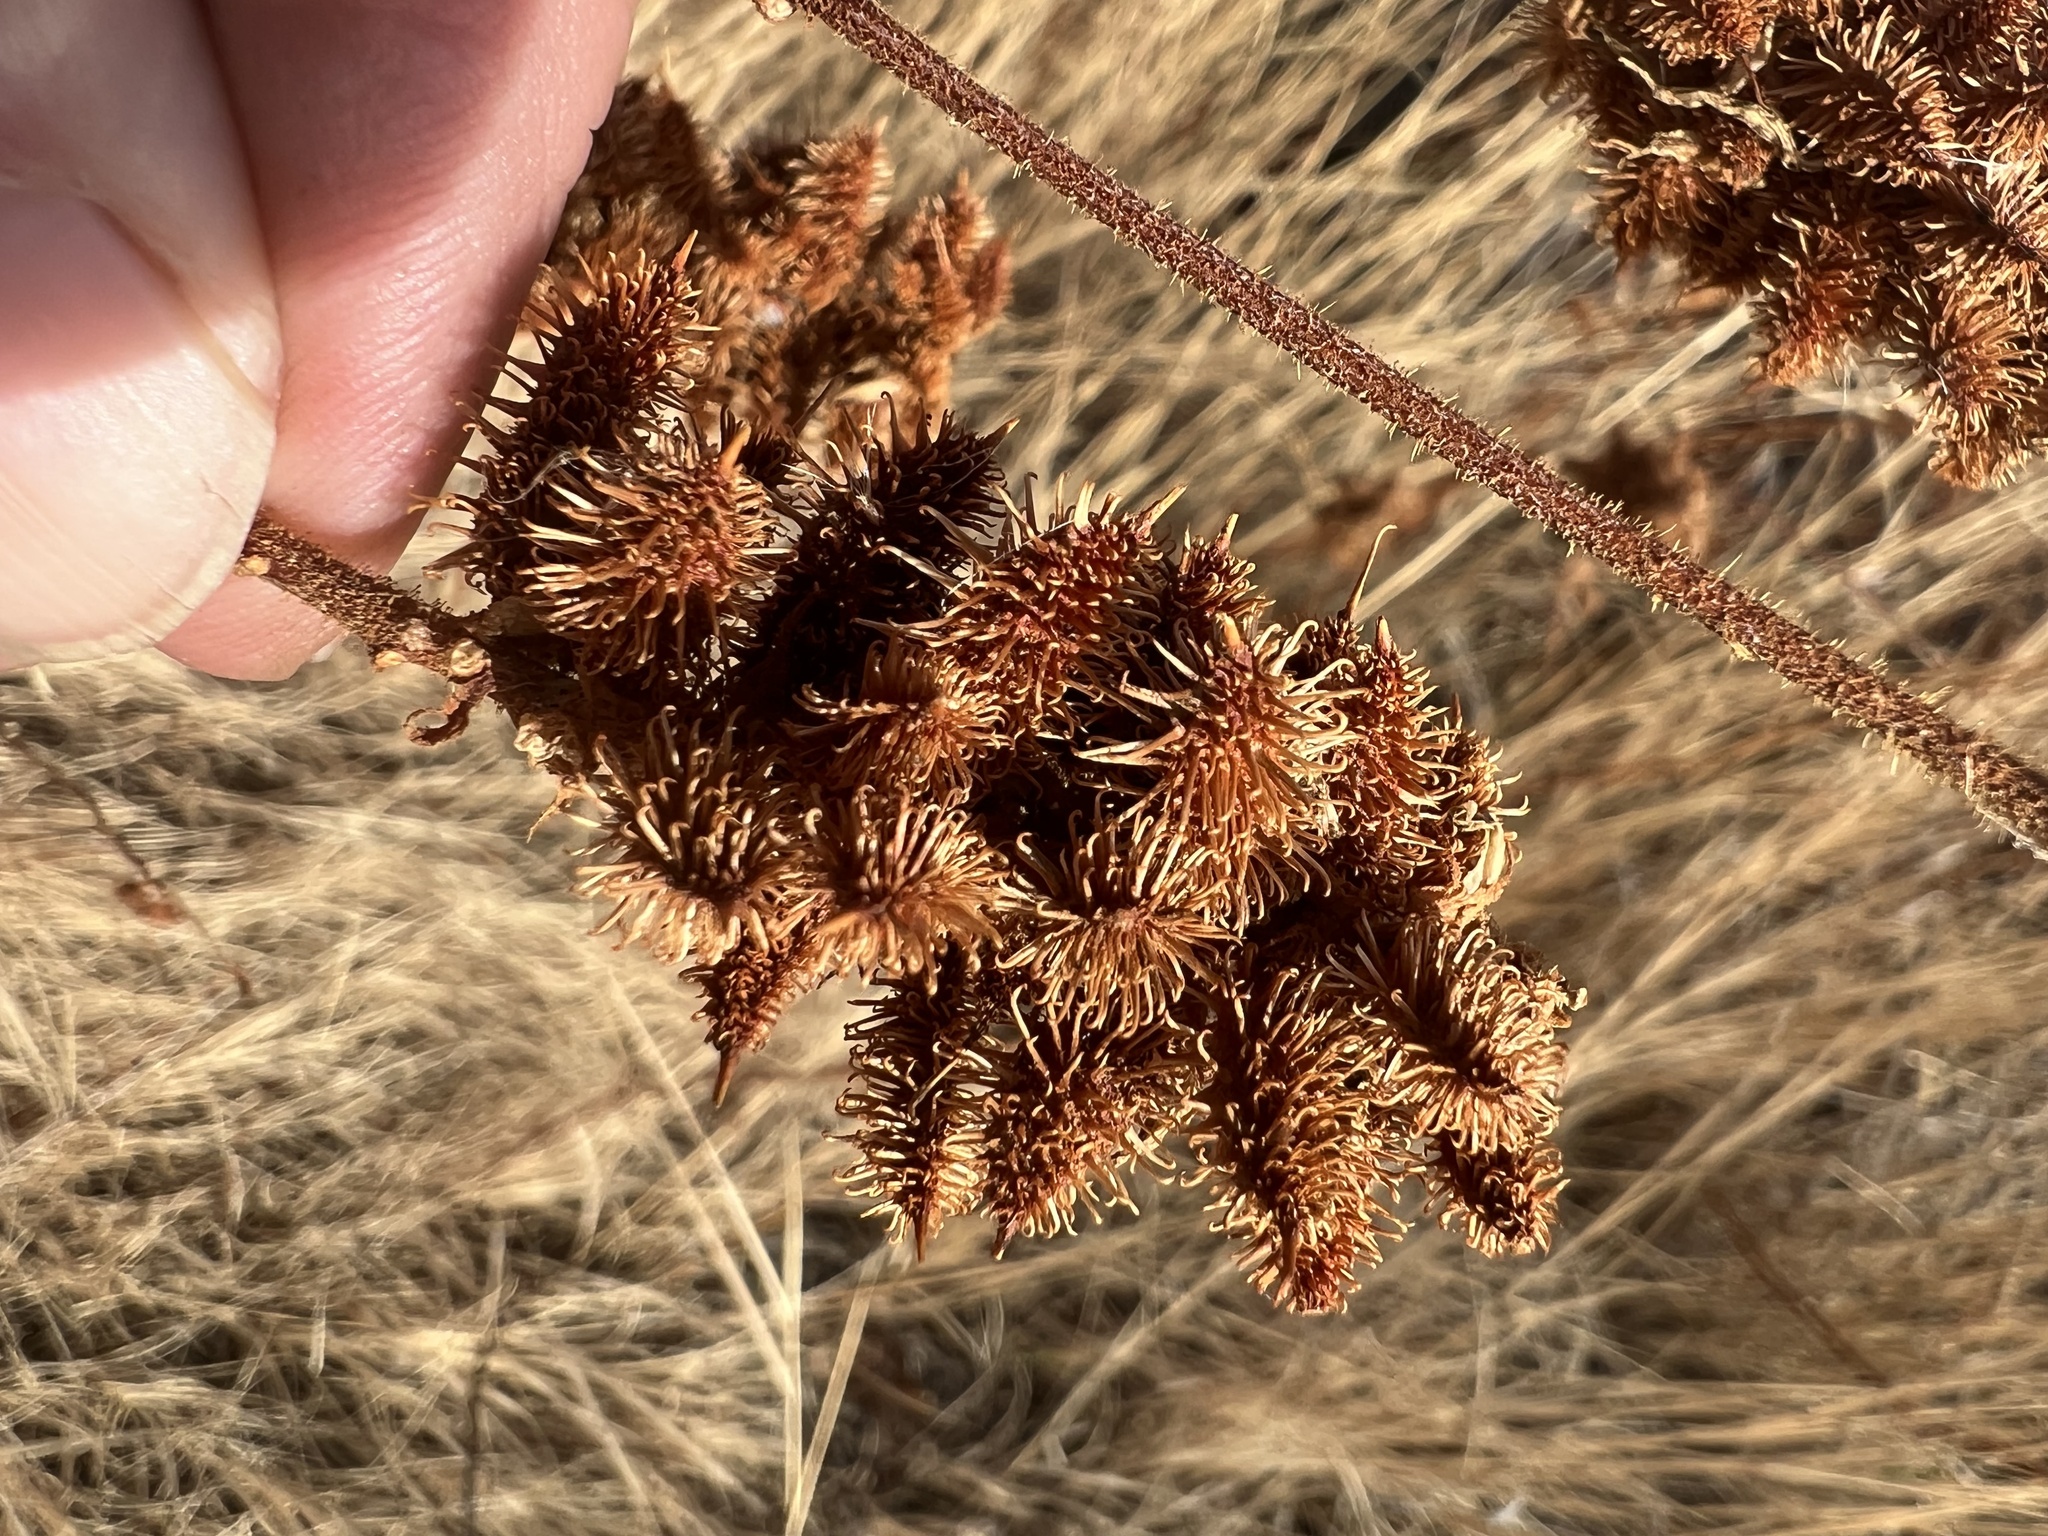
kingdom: Plantae
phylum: Tracheophyta
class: Magnoliopsida
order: Fabales
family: Fabaceae
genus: Glycyrrhiza
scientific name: Glycyrrhiza lepidota
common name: American liquorice
